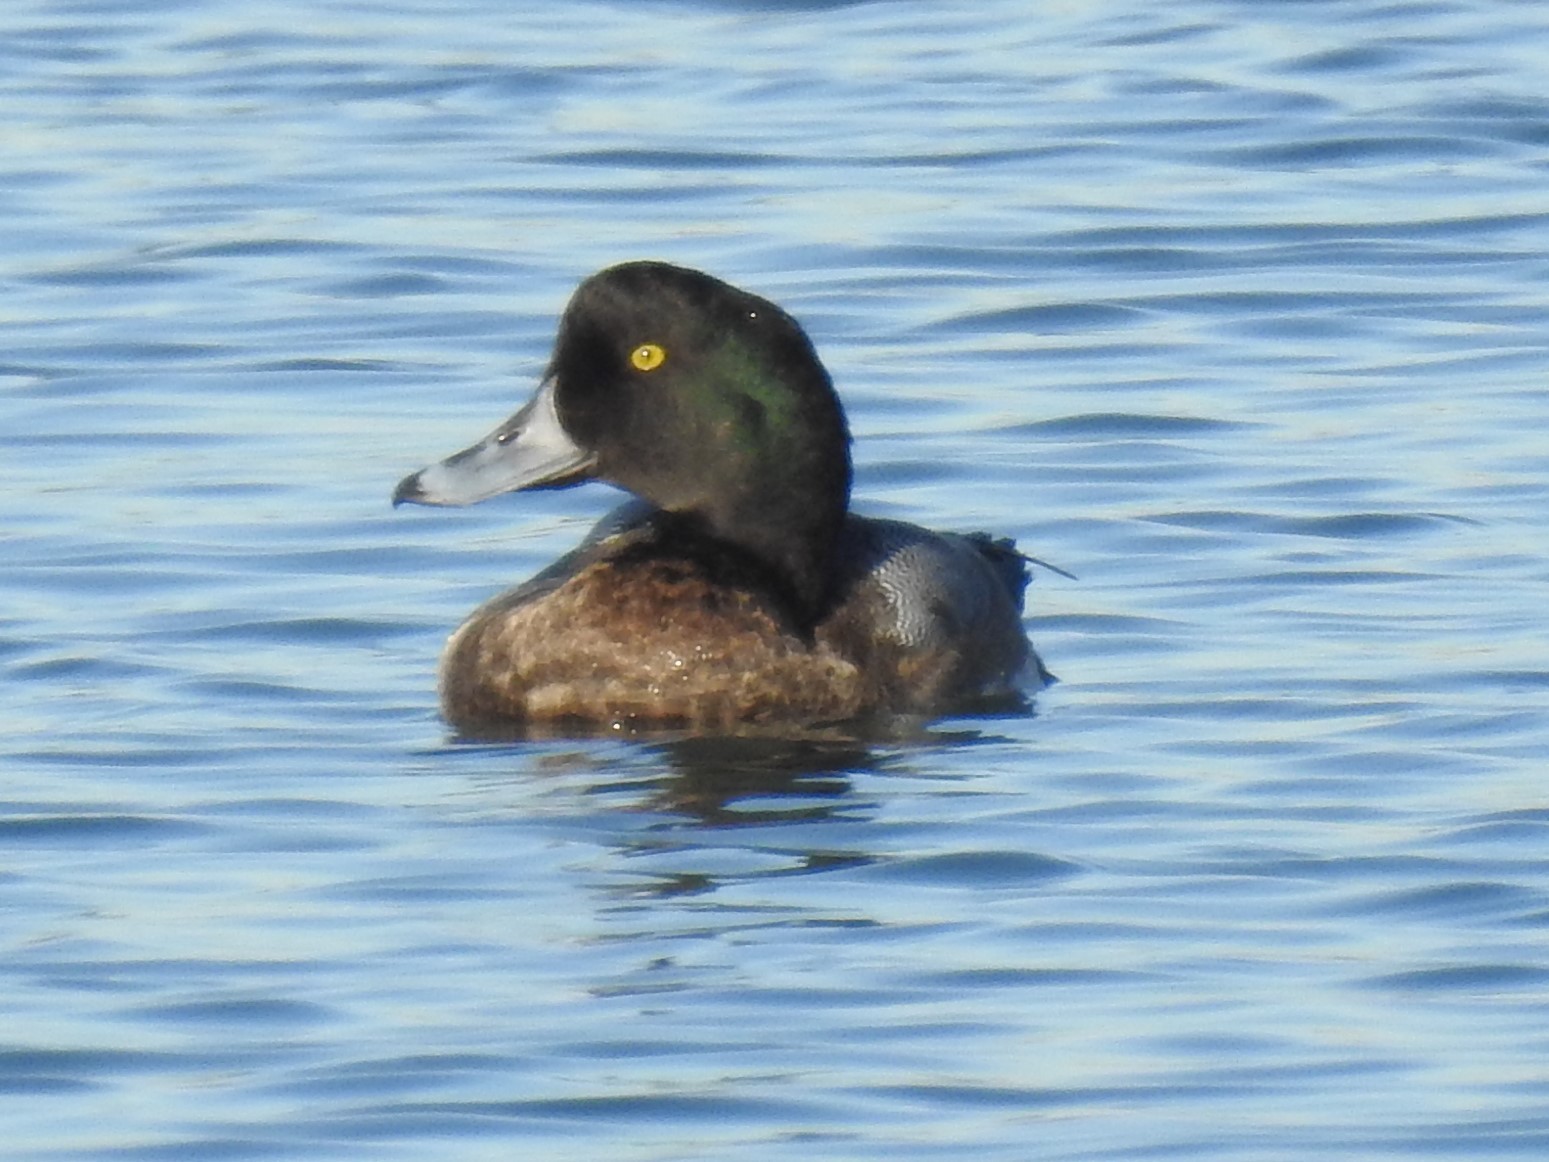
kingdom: Animalia
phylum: Chordata
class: Aves
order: Anseriformes
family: Anatidae
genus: Aythya
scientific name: Aythya marila
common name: Greater scaup
